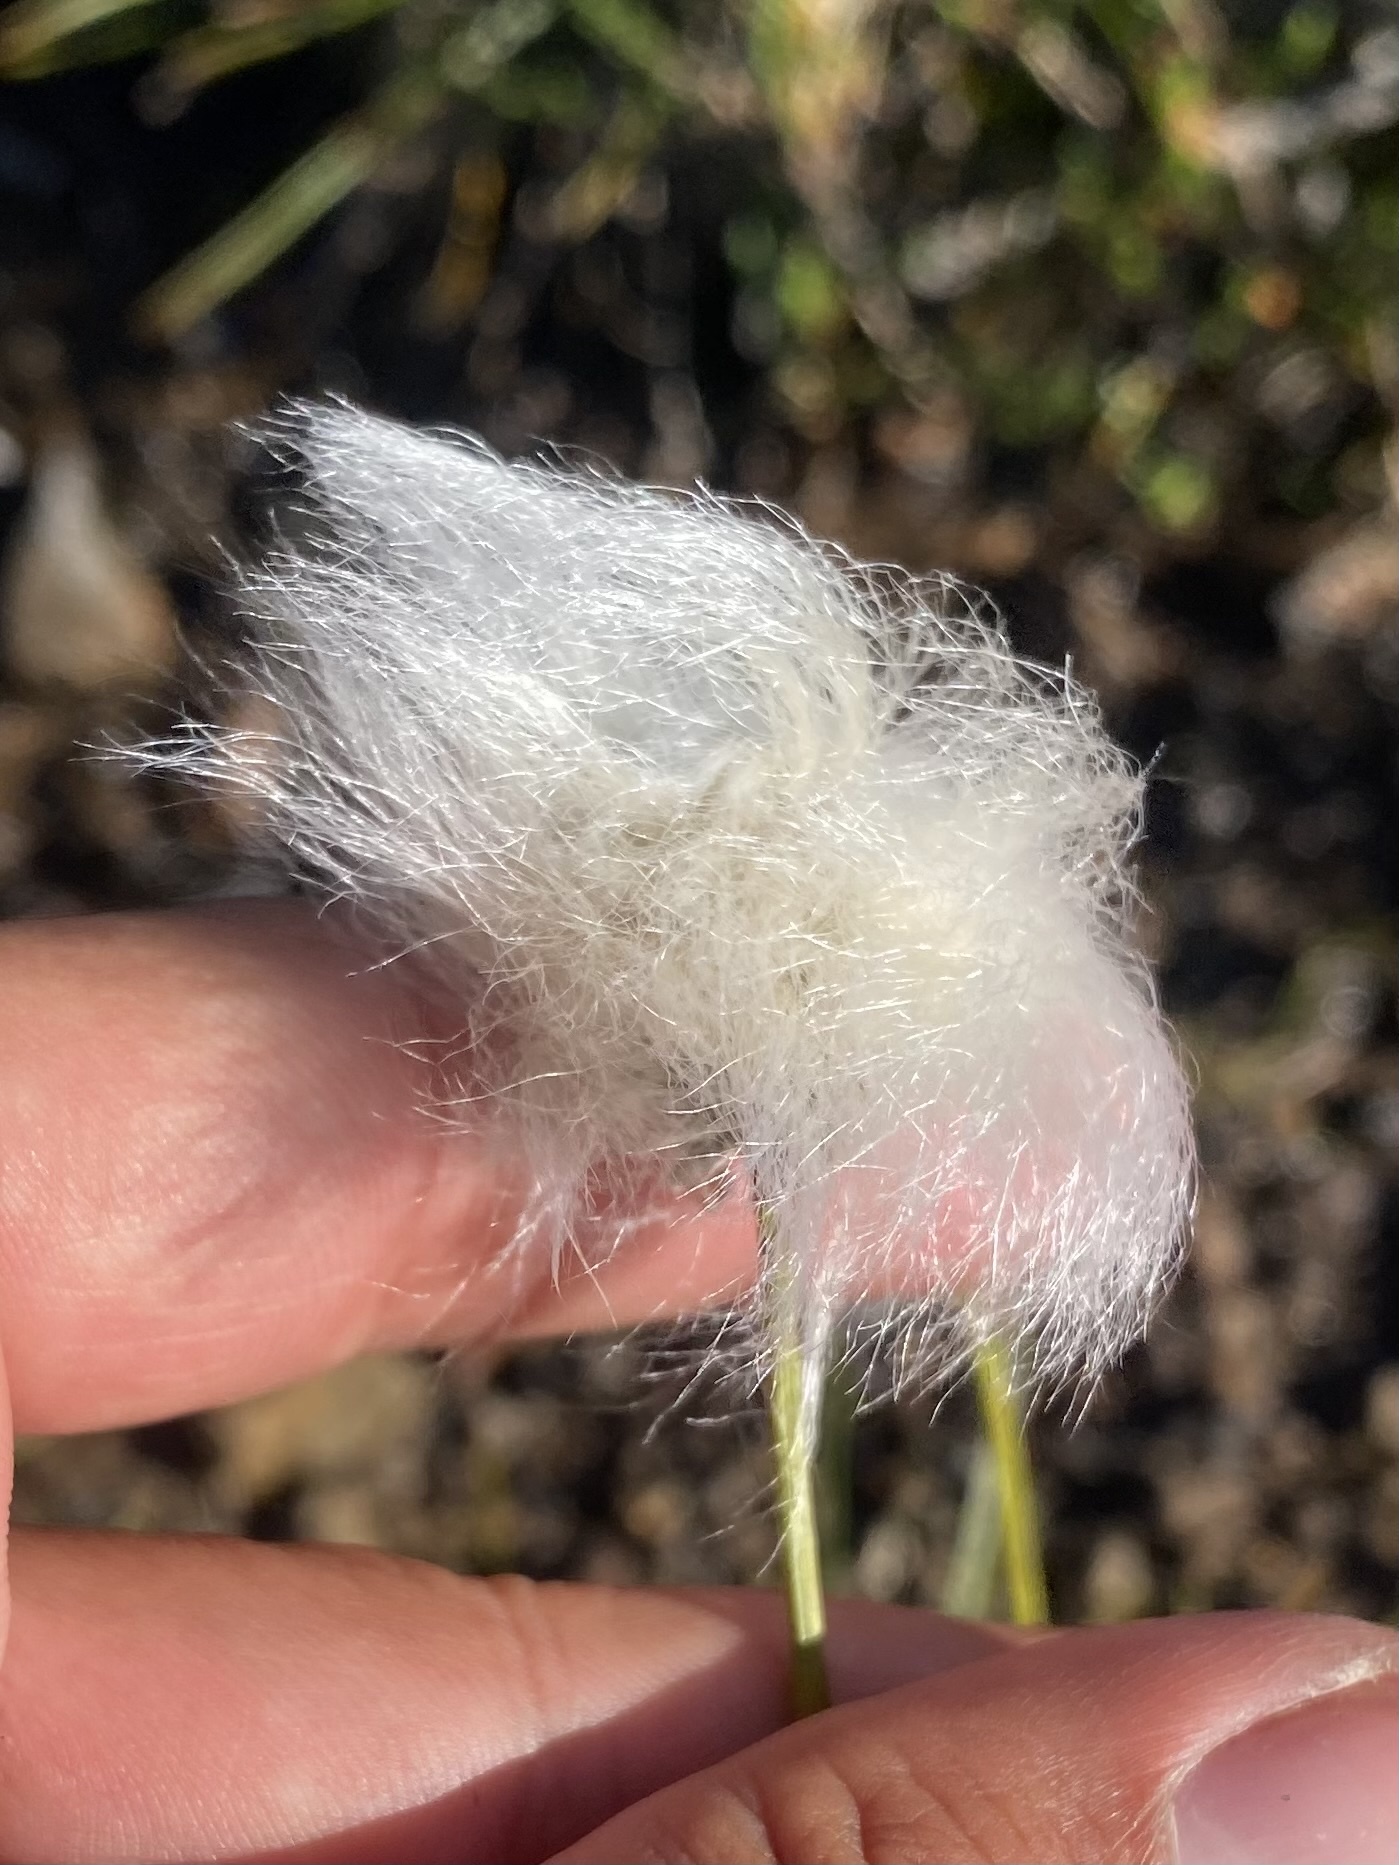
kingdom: Plantae
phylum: Tracheophyta
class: Liliopsida
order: Poales
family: Cyperaceae
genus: Eriophorum
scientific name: Eriophorum vaginatum
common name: Hare's-tail cottongrass
